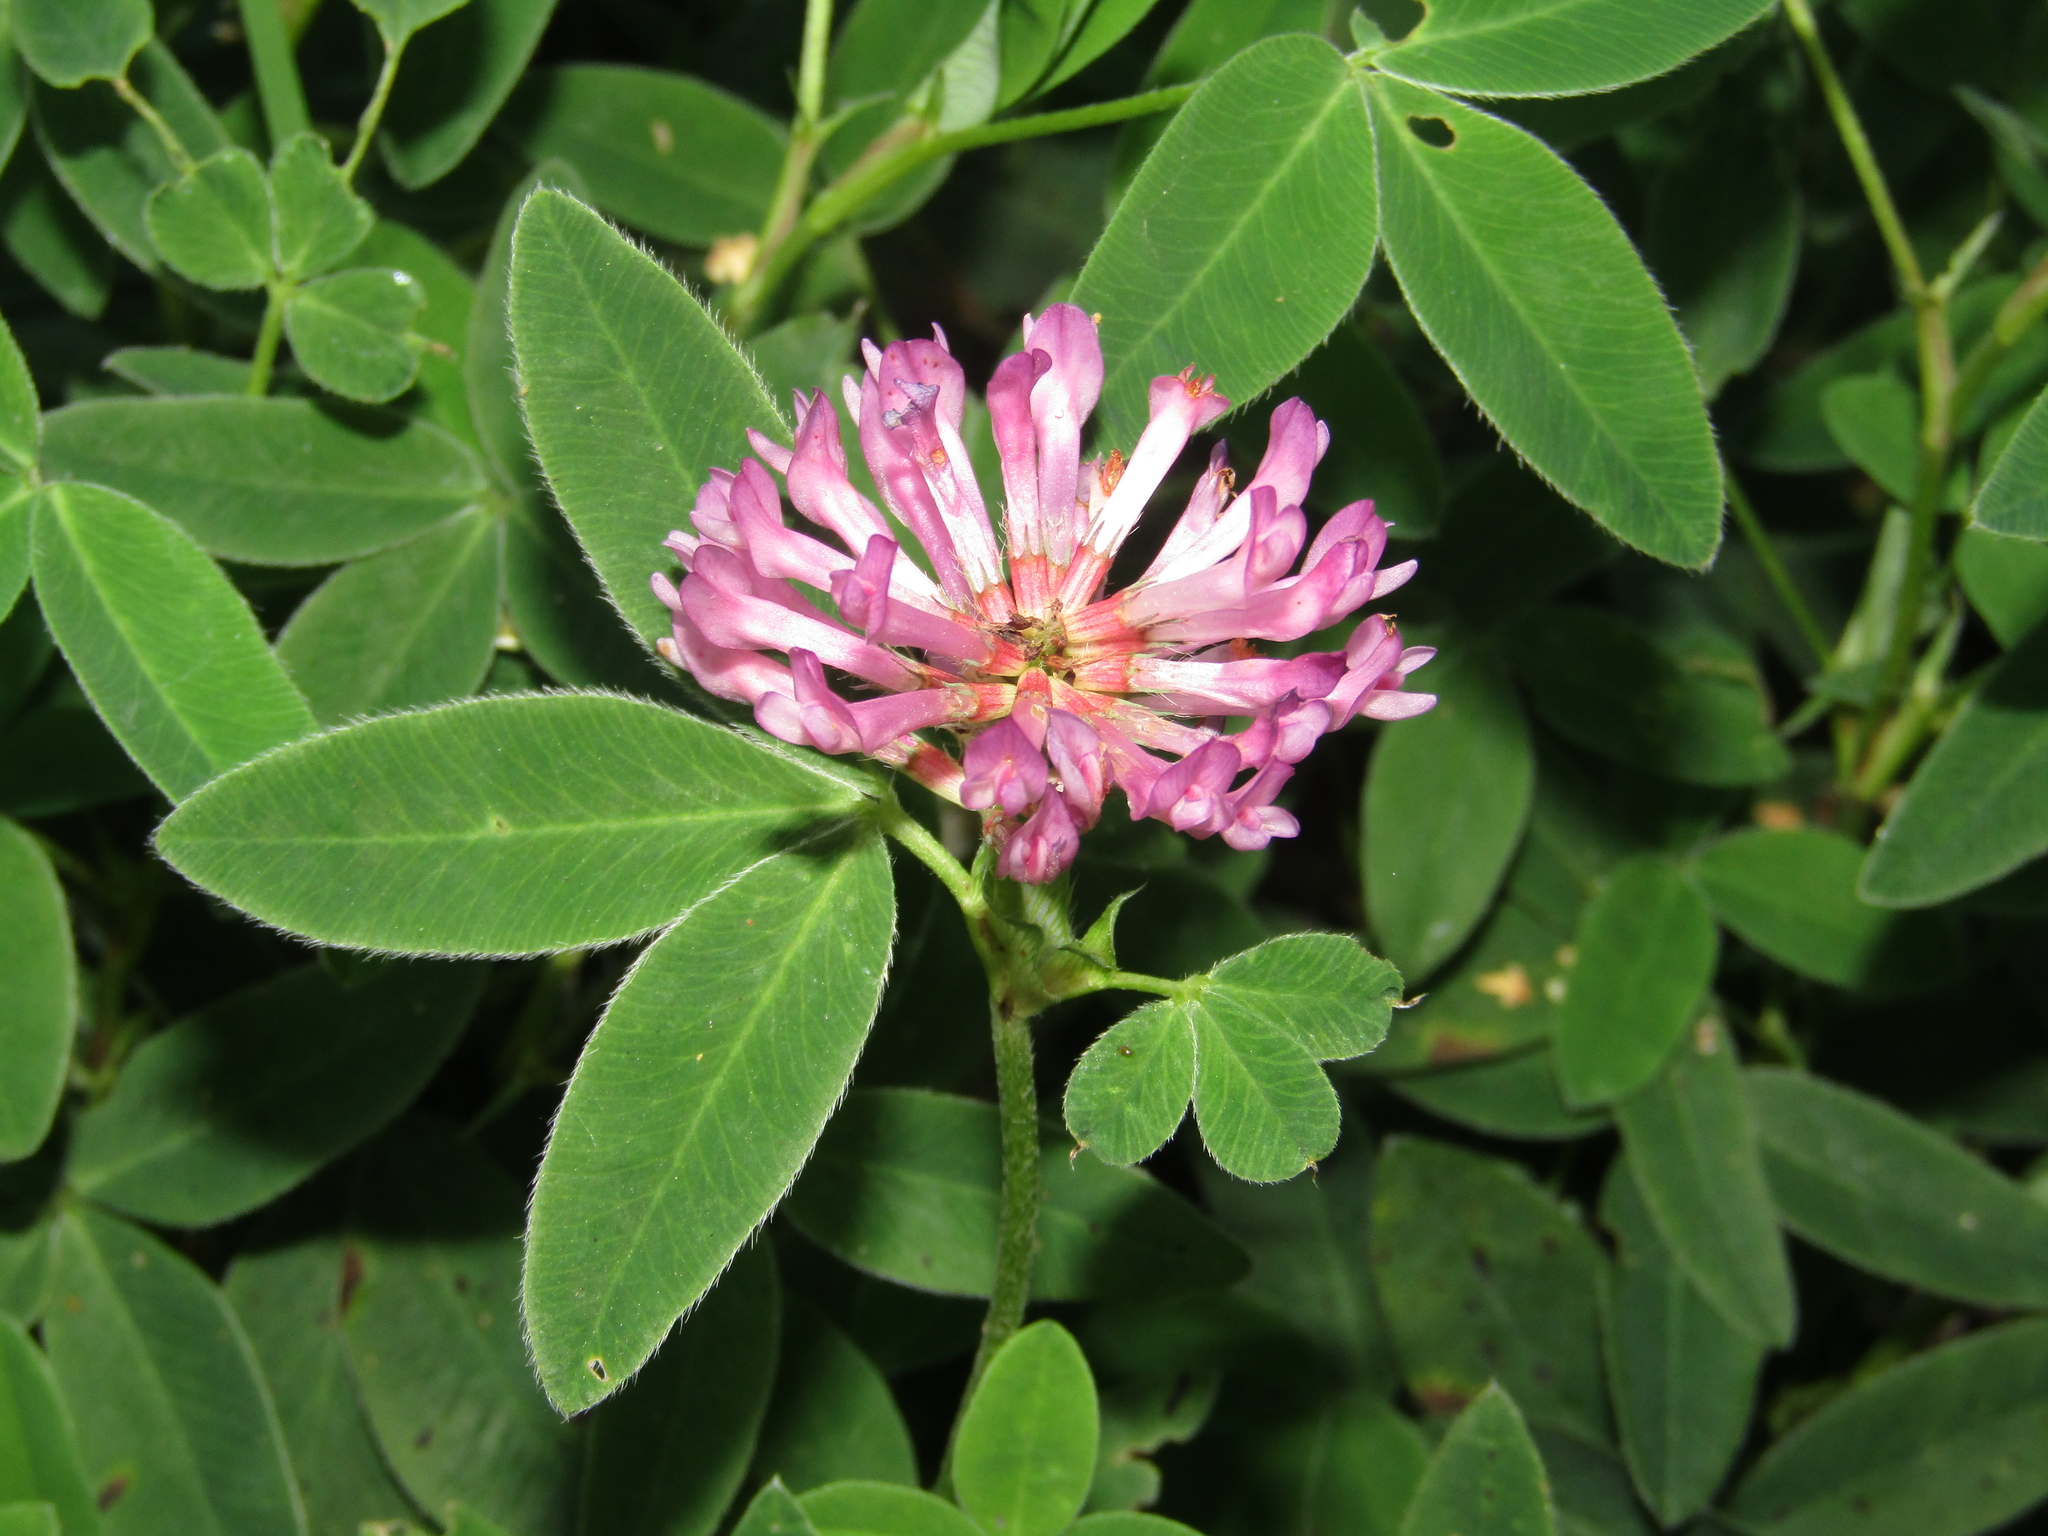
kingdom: Plantae
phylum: Tracheophyta
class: Magnoliopsida
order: Fabales
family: Fabaceae
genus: Trifolium
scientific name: Trifolium medium
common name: Zigzag clover
